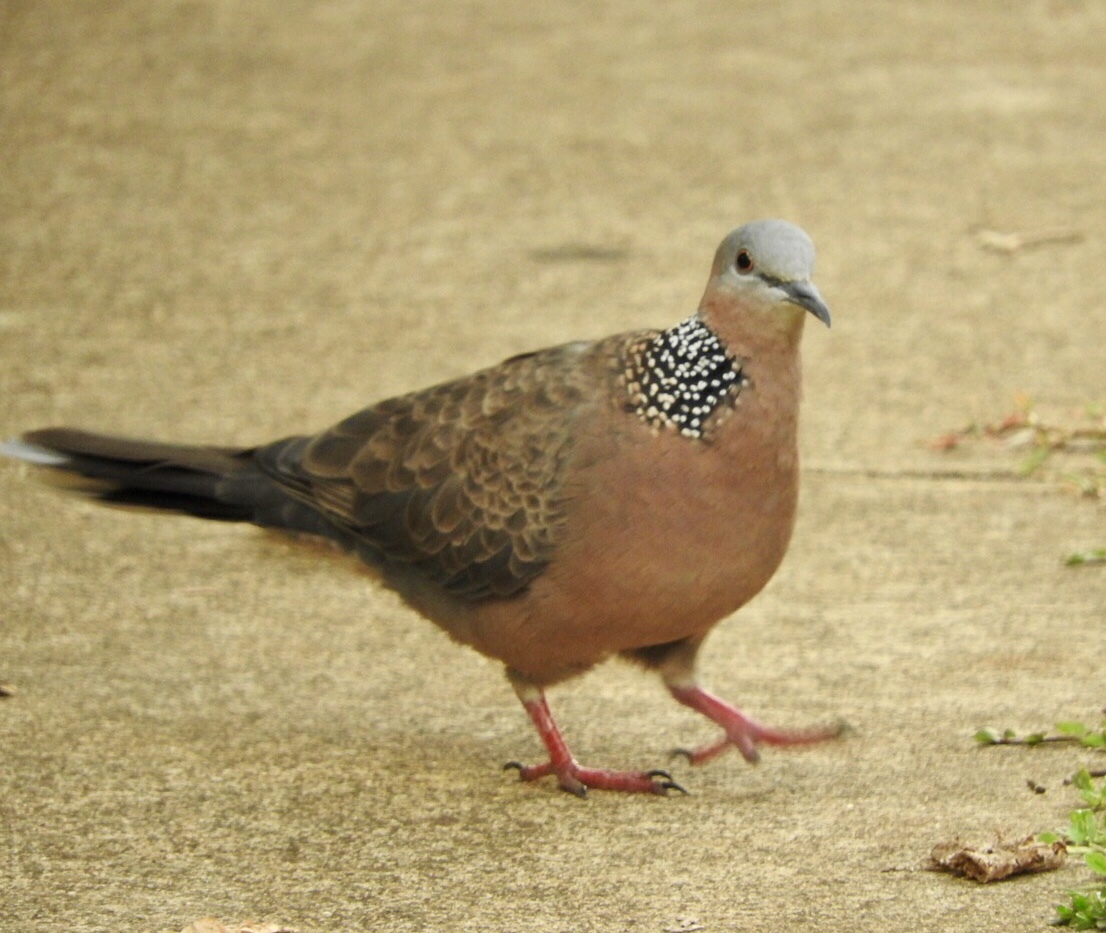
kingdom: Animalia
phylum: Chordata
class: Aves
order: Columbiformes
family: Columbidae
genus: Spilopelia
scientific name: Spilopelia chinensis
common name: Spotted dove
